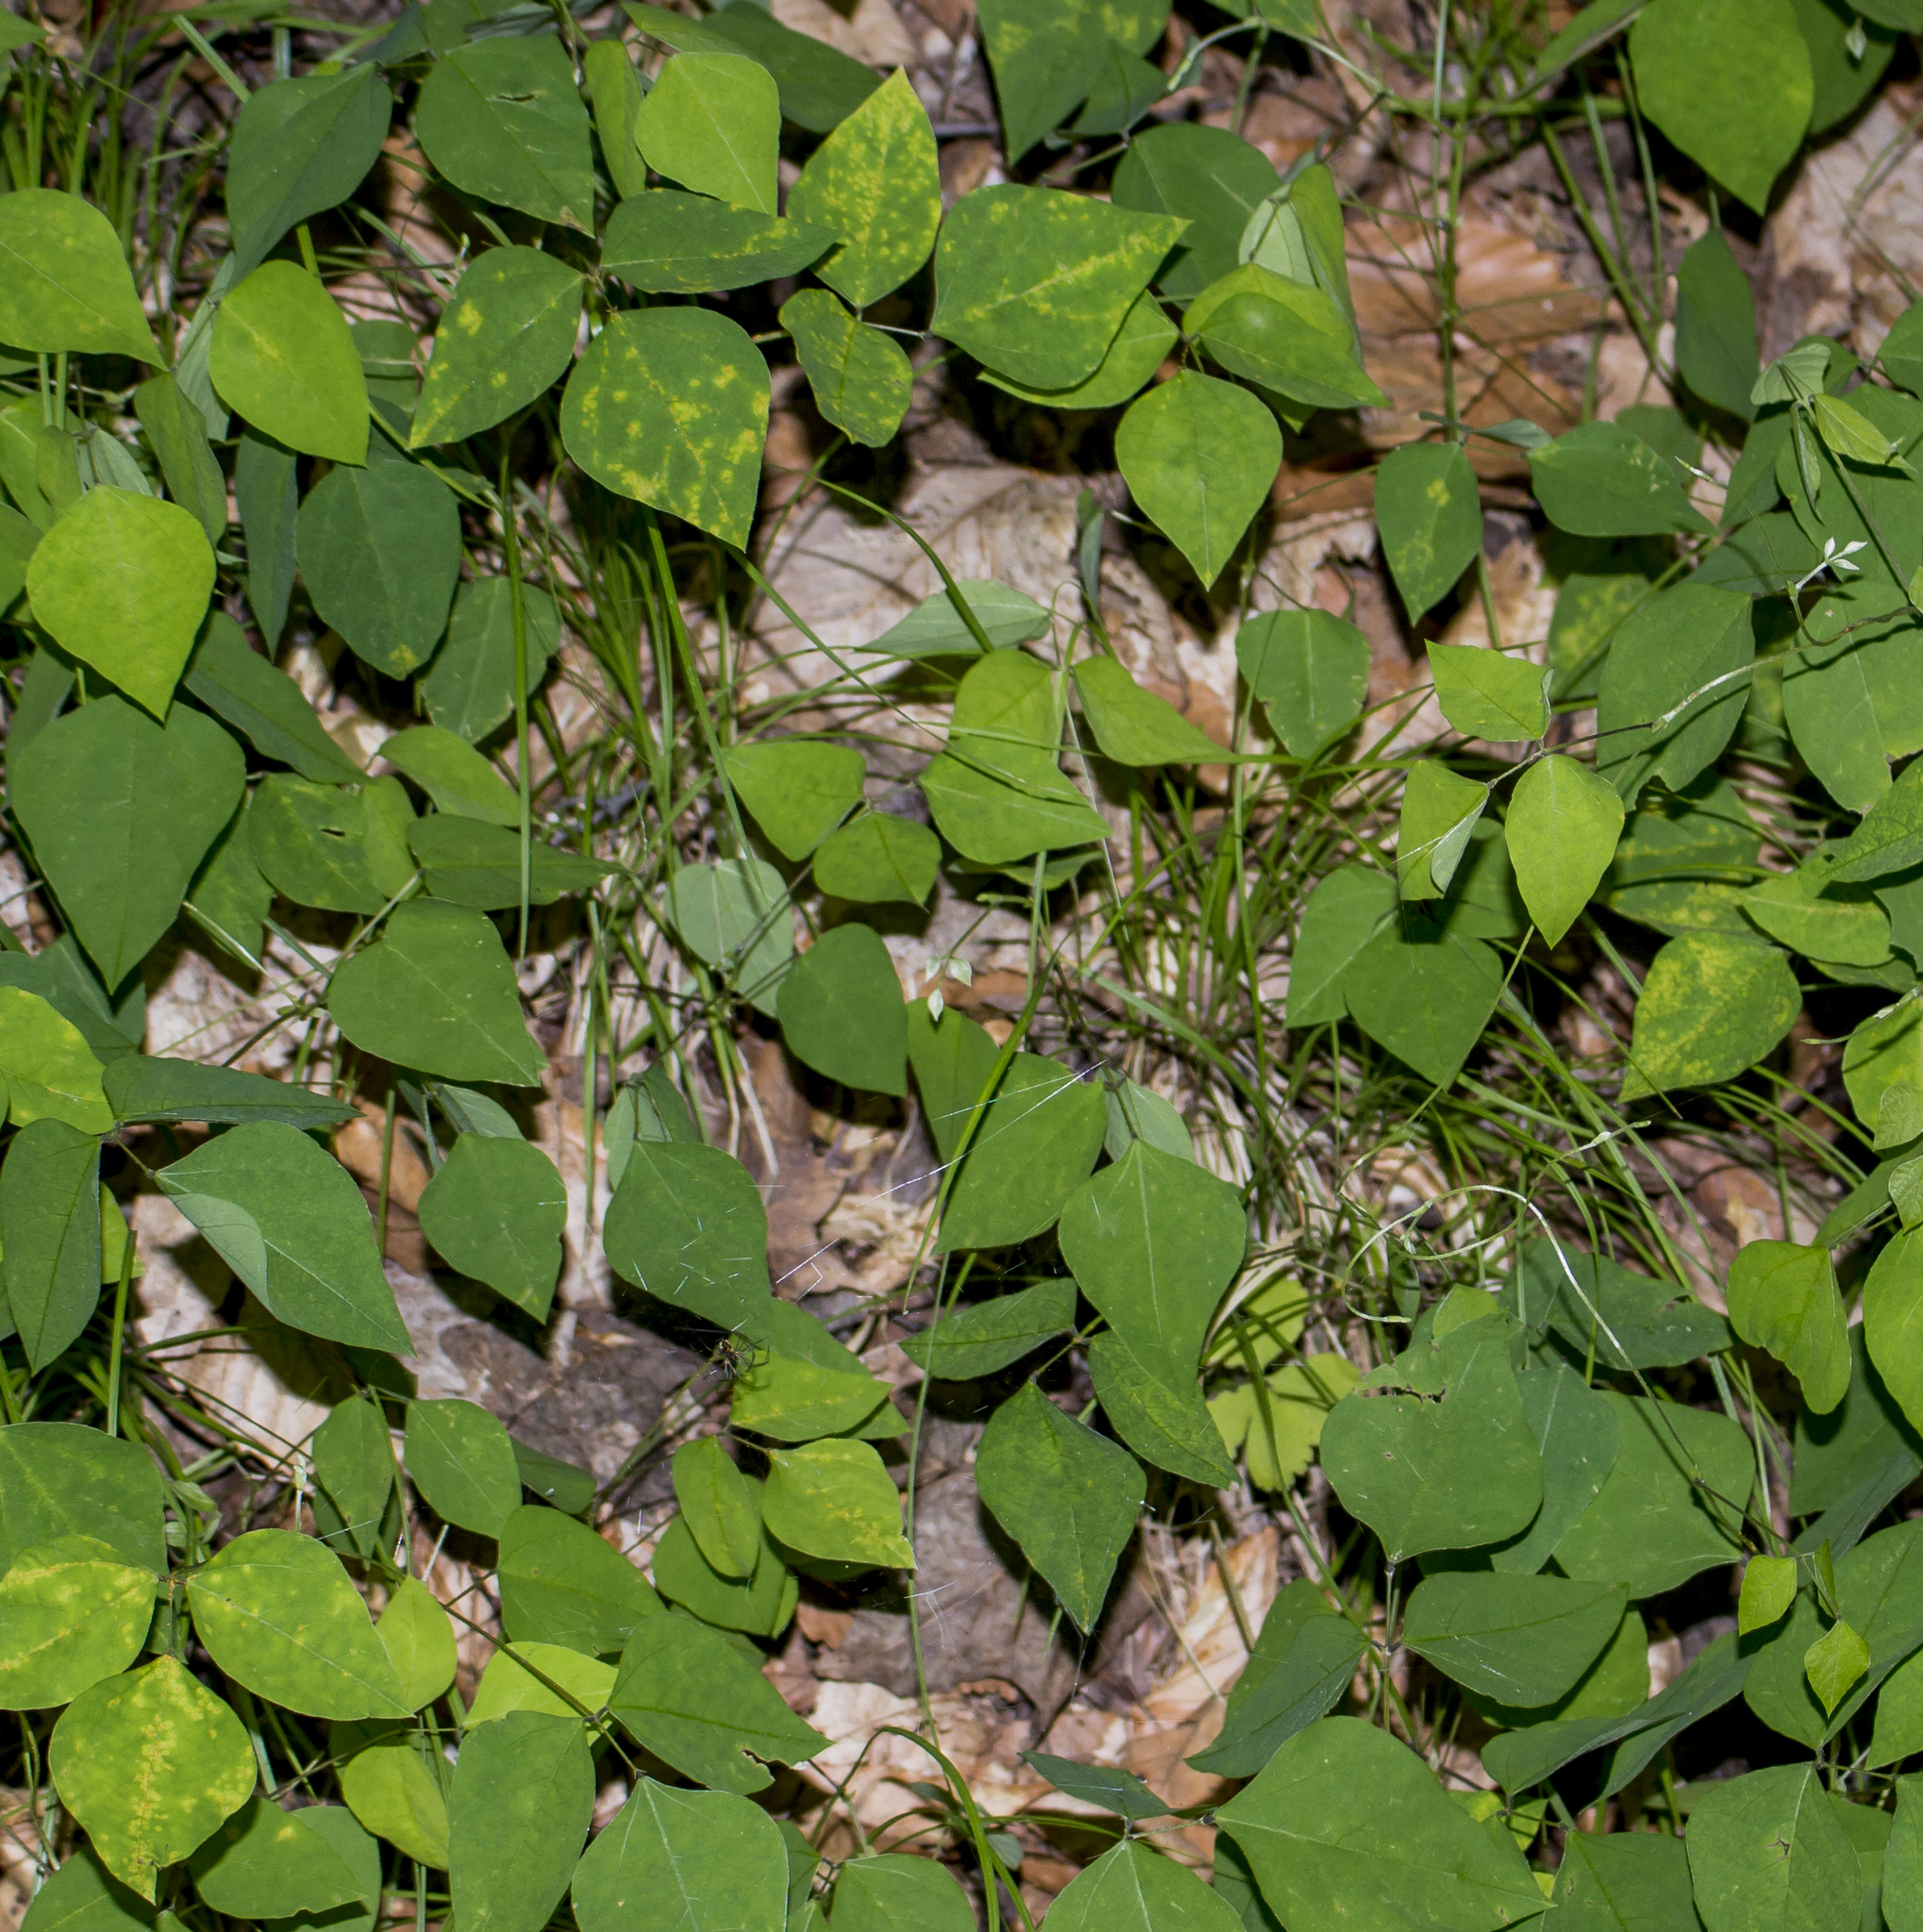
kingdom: Plantae
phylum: Tracheophyta
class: Magnoliopsida
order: Fabales
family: Fabaceae
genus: Amphicarpaea
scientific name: Amphicarpaea bracteata
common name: American hog peanut
